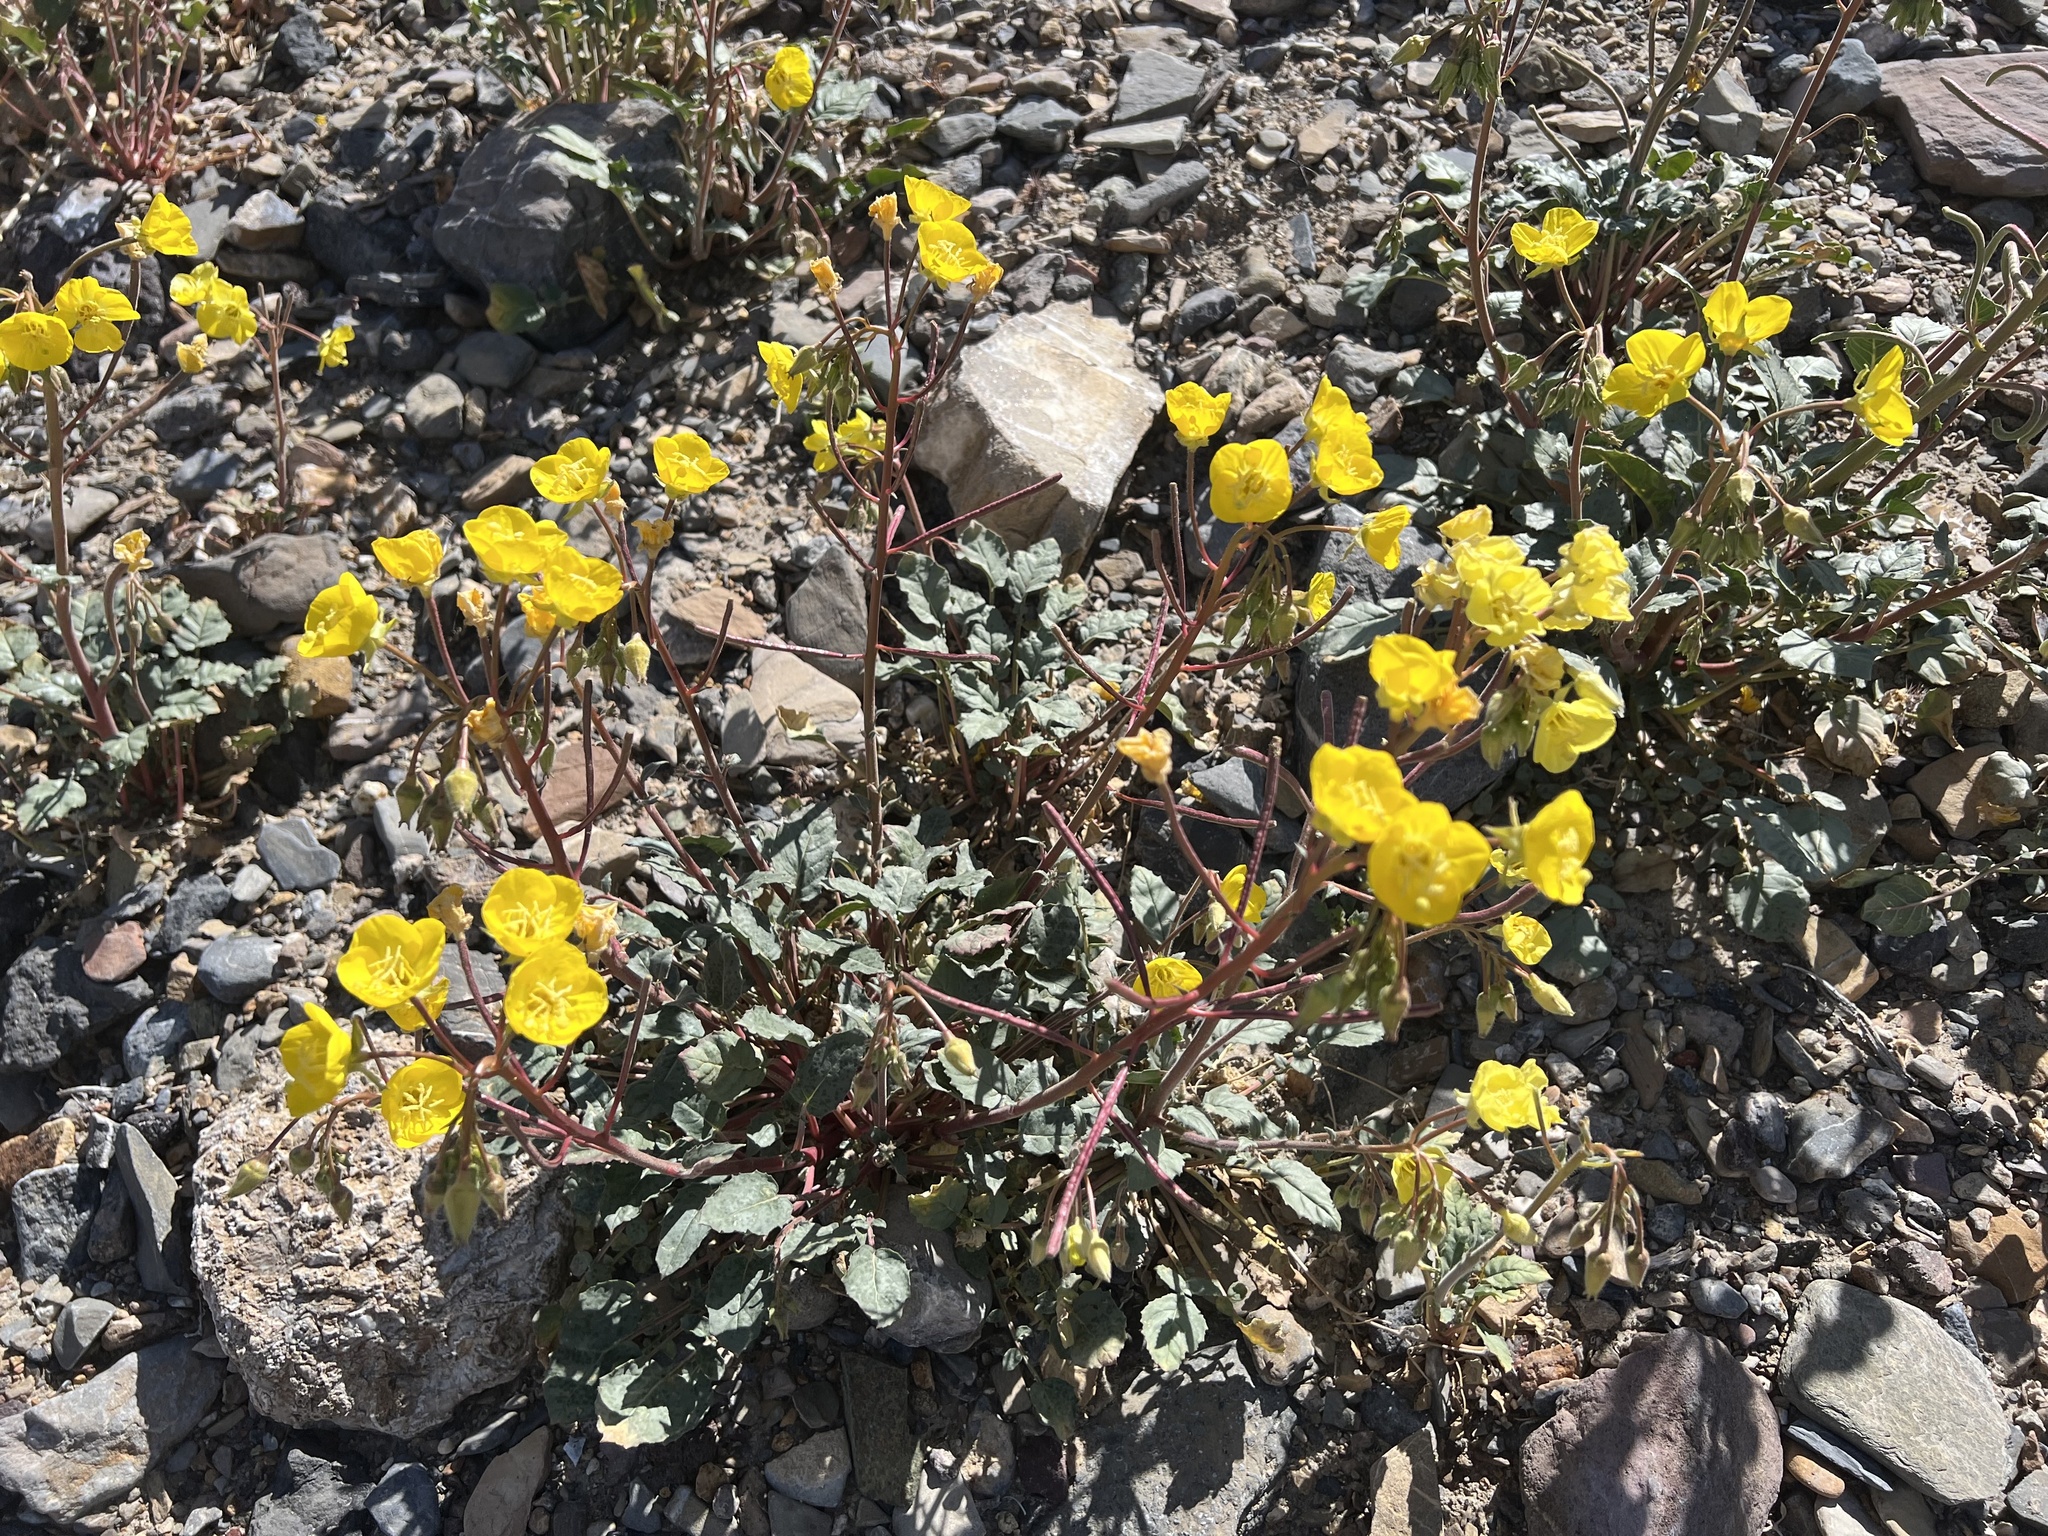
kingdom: Plantae
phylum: Tracheophyta
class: Magnoliopsida
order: Myrtales
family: Onagraceae
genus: Chylismia
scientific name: Chylismia brevipes
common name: Yellow cups
